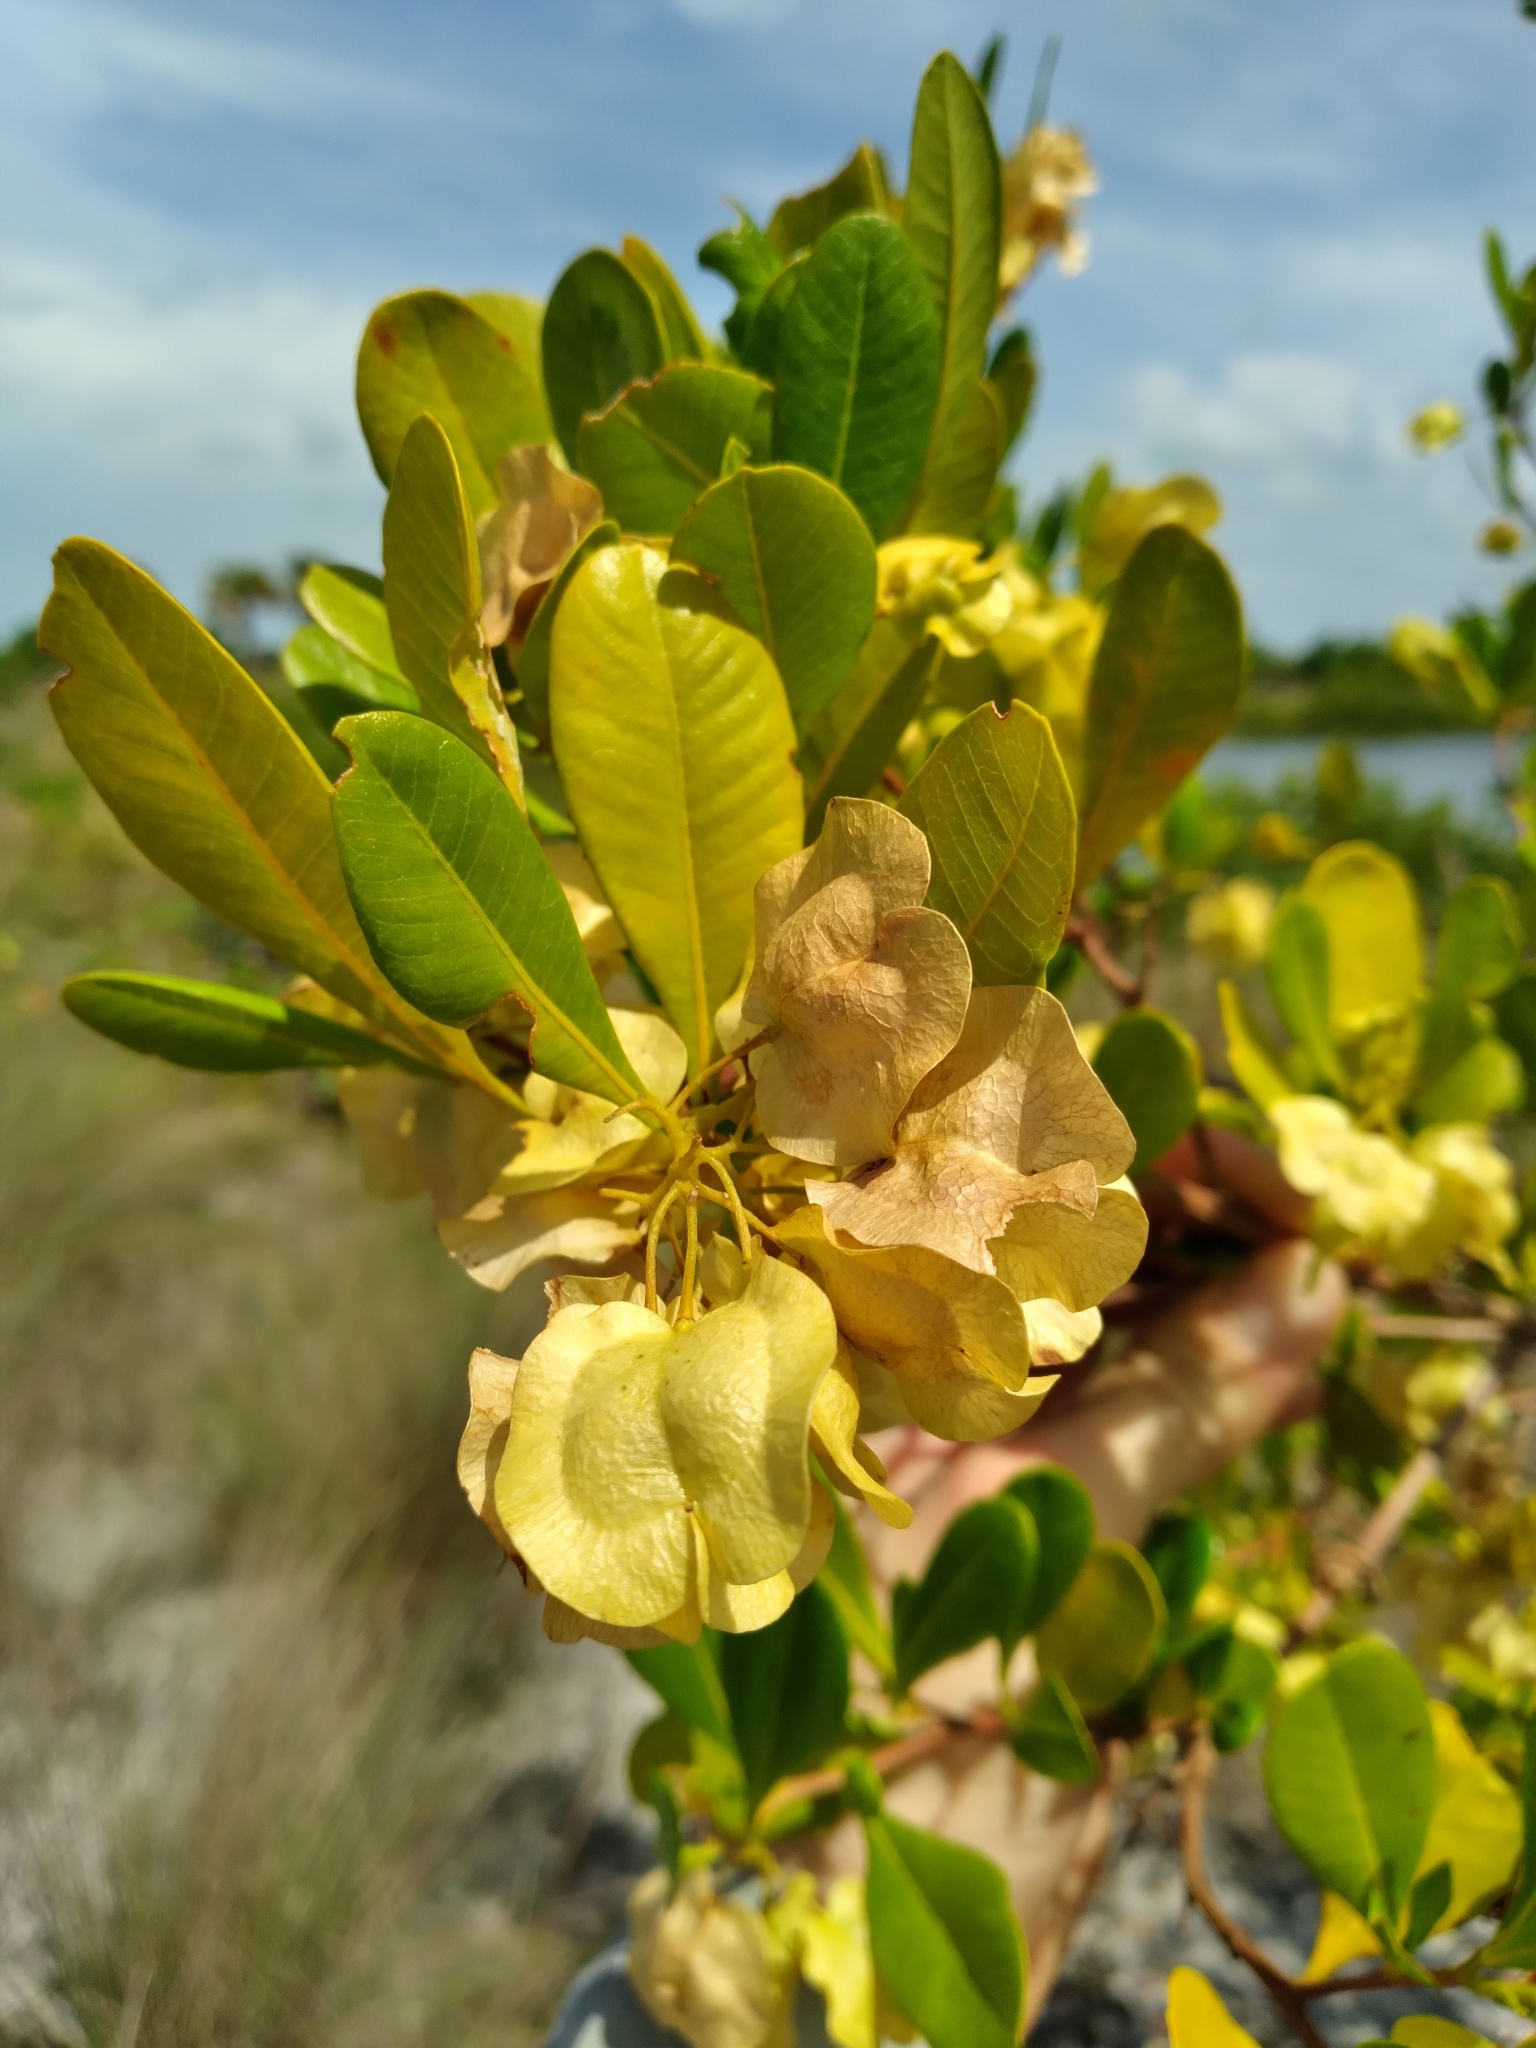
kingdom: Plantae
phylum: Tracheophyta
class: Magnoliopsida
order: Sapindales
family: Sapindaceae
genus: Dodonaea
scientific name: Dodonaea viscosa
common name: Hopbush
